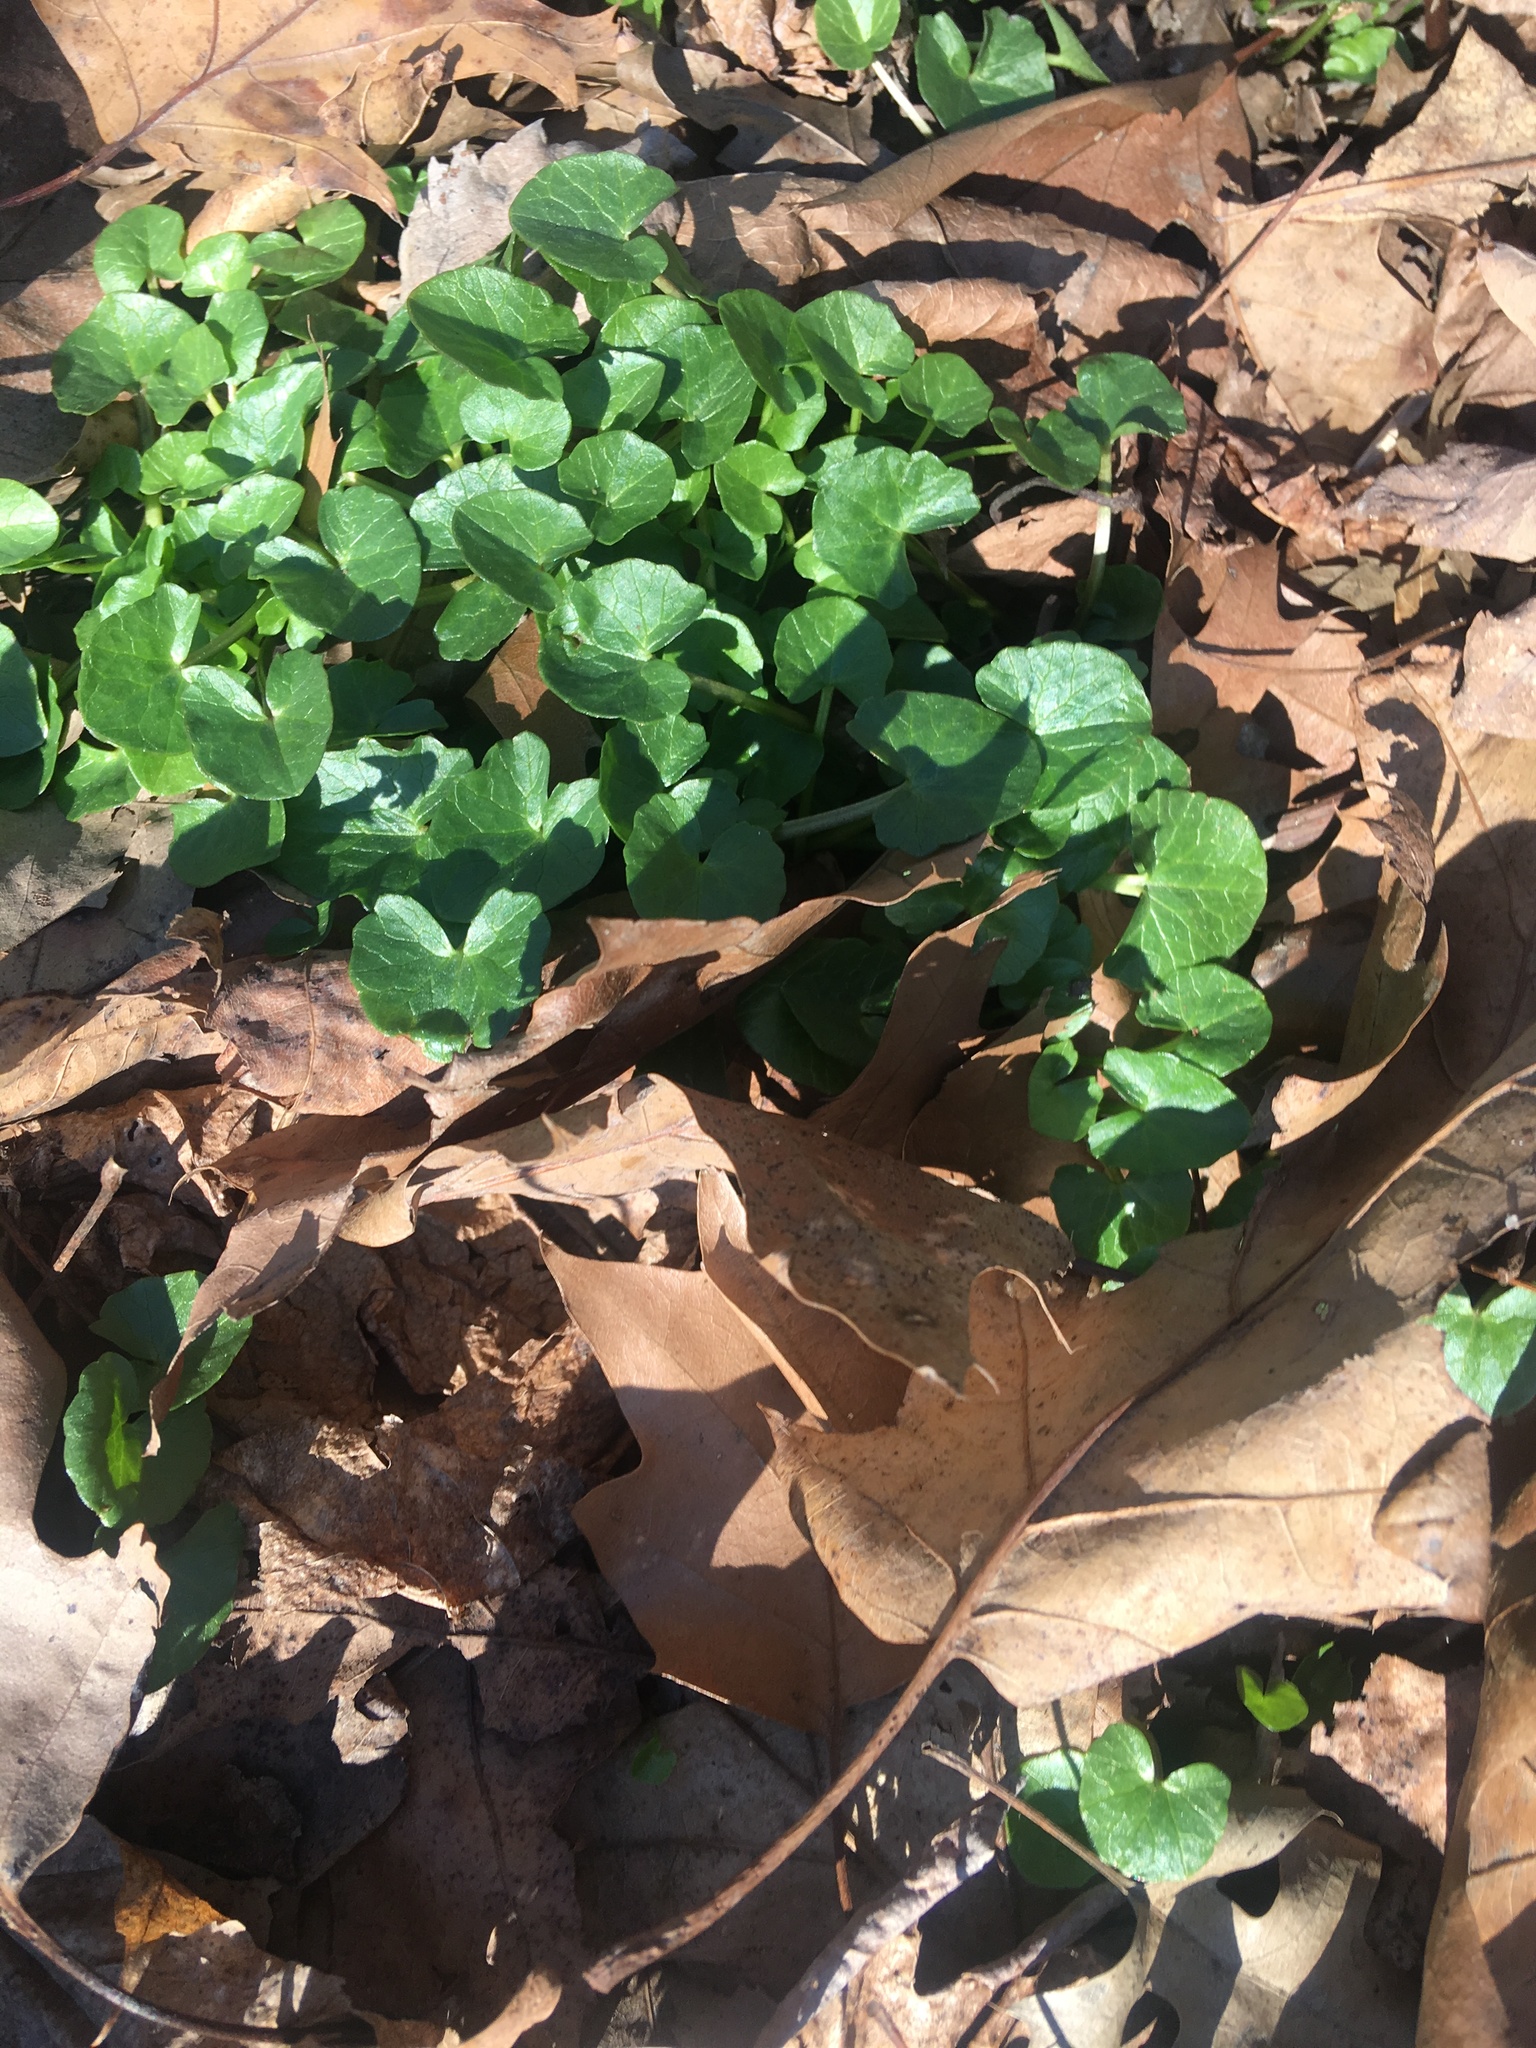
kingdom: Plantae
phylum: Tracheophyta
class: Magnoliopsida
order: Ranunculales
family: Ranunculaceae
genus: Ficaria
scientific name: Ficaria verna
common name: Lesser celandine
